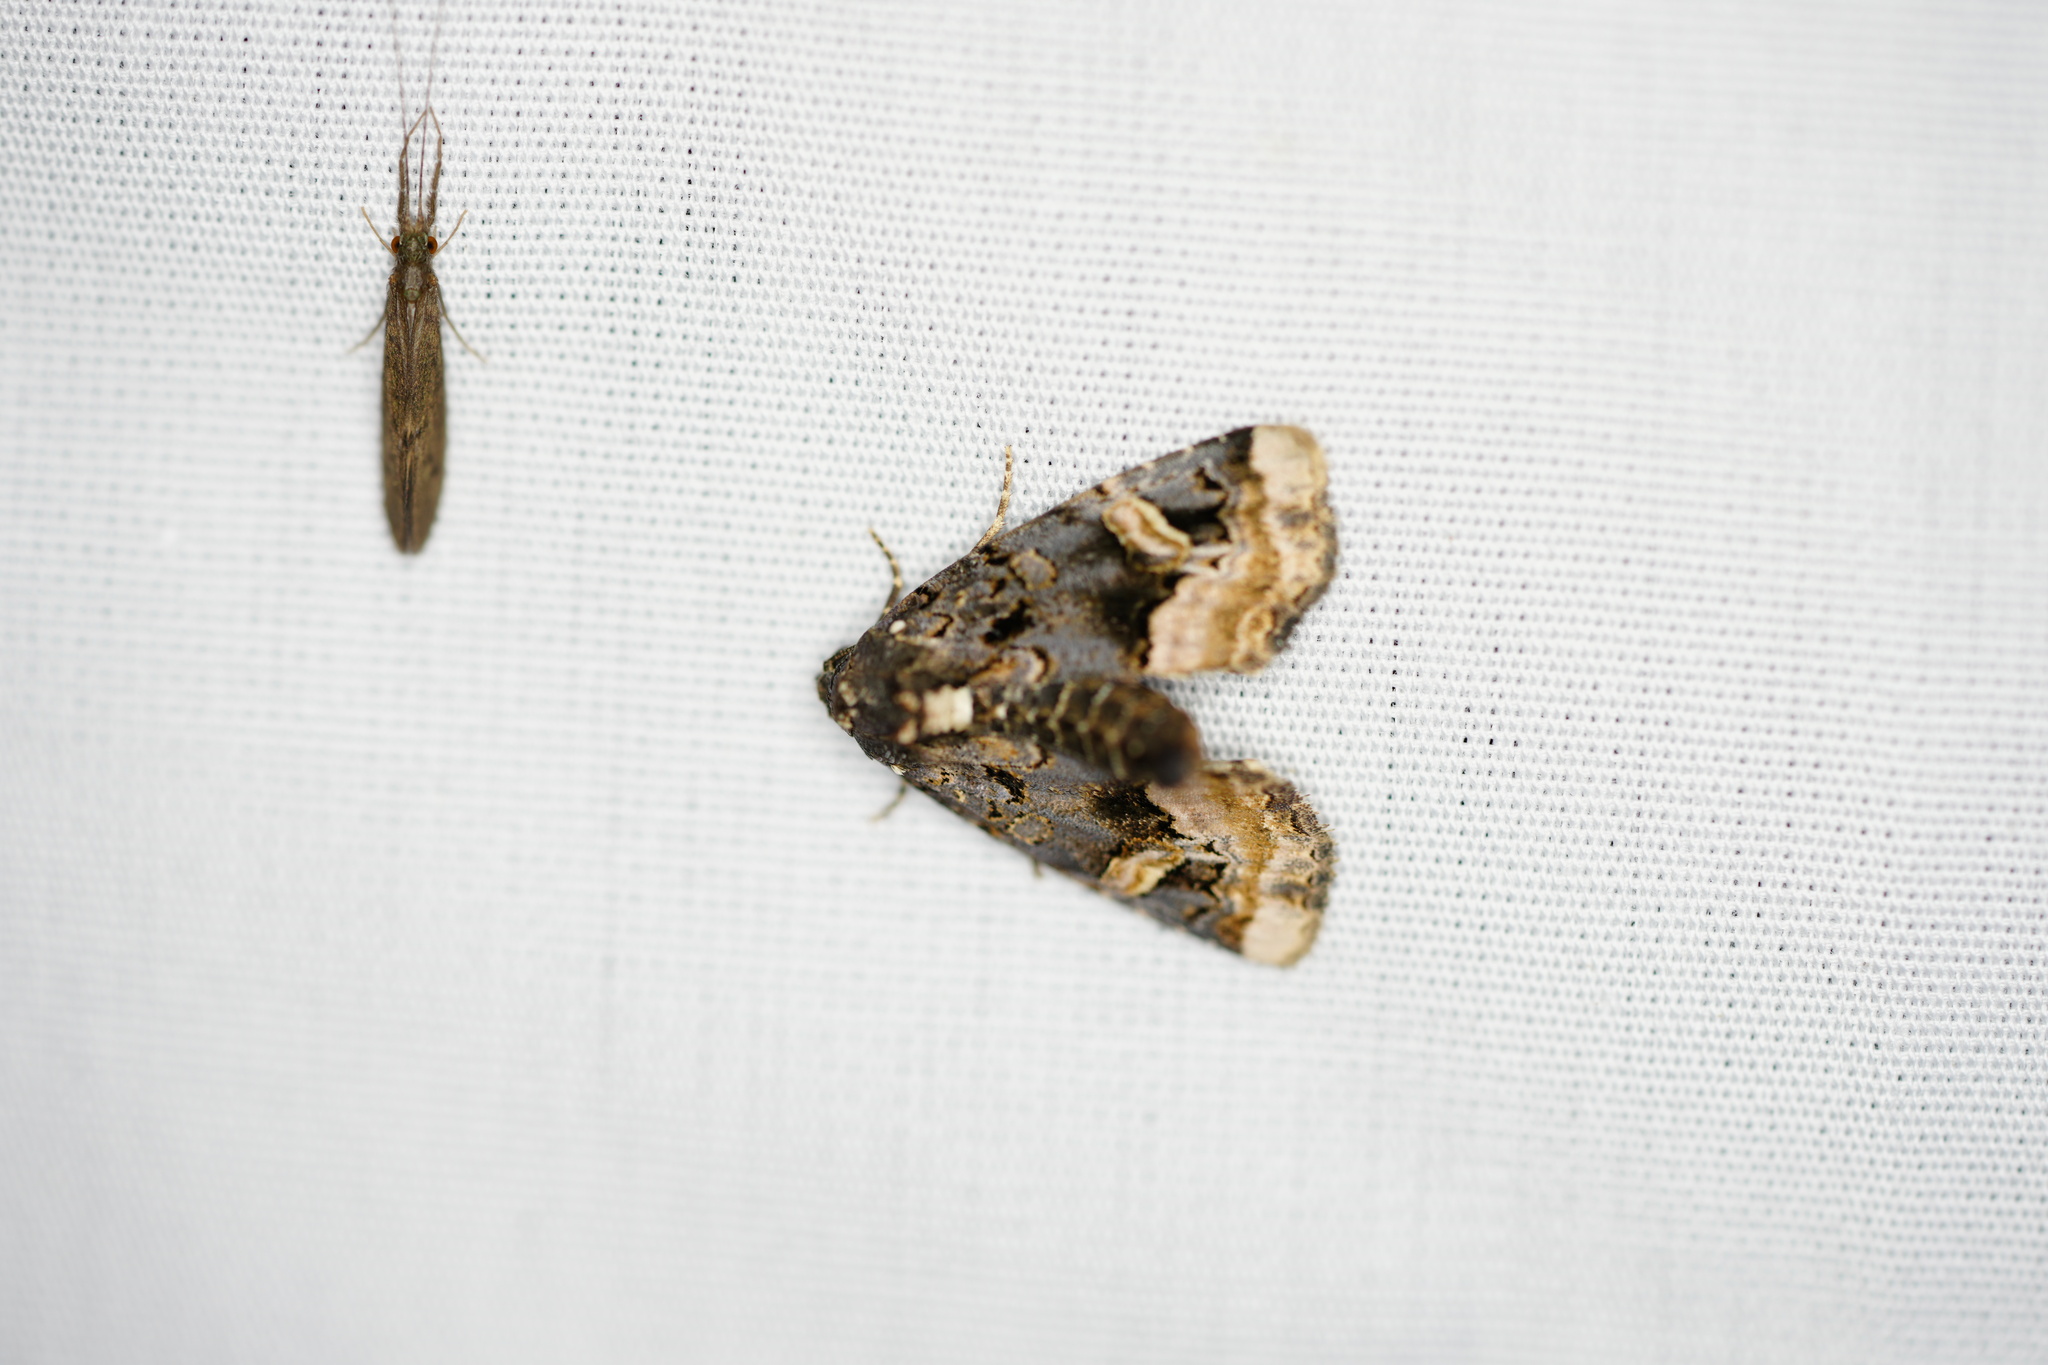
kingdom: Animalia
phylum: Arthropoda
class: Insecta
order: Lepidoptera
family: Noctuidae
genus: Homophoberia
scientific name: Homophoberia apicosa
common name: Black wedge-spot
